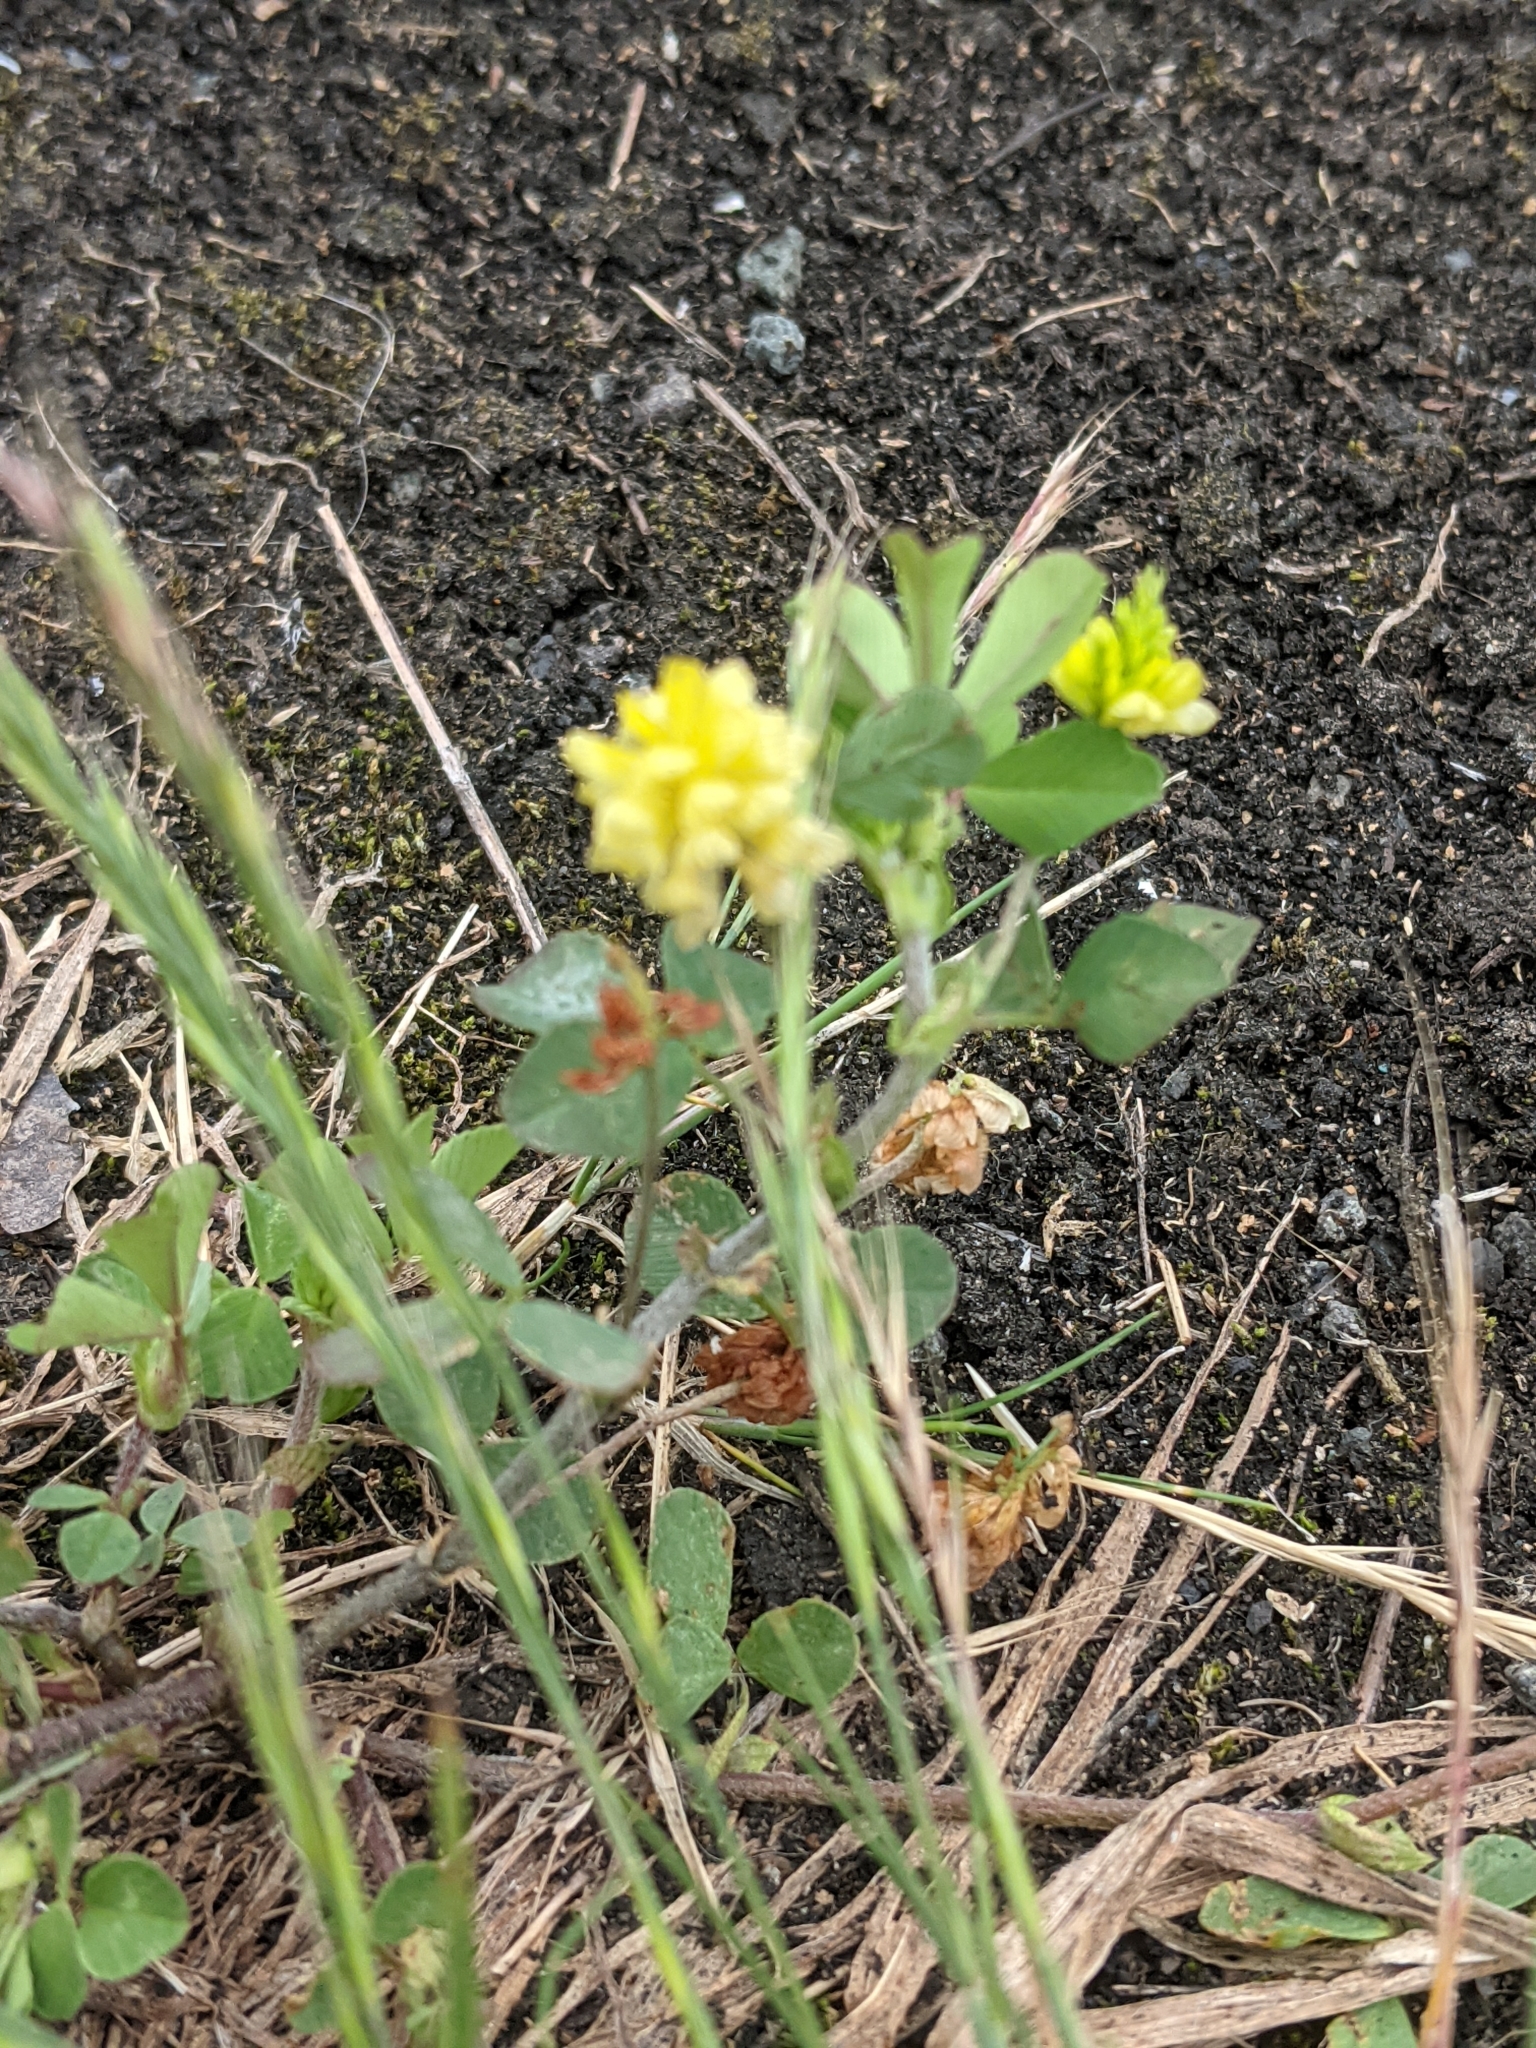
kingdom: Plantae
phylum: Tracheophyta
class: Magnoliopsida
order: Fabales
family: Fabaceae
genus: Trifolium
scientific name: Trifolium campestre
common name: Field clover
